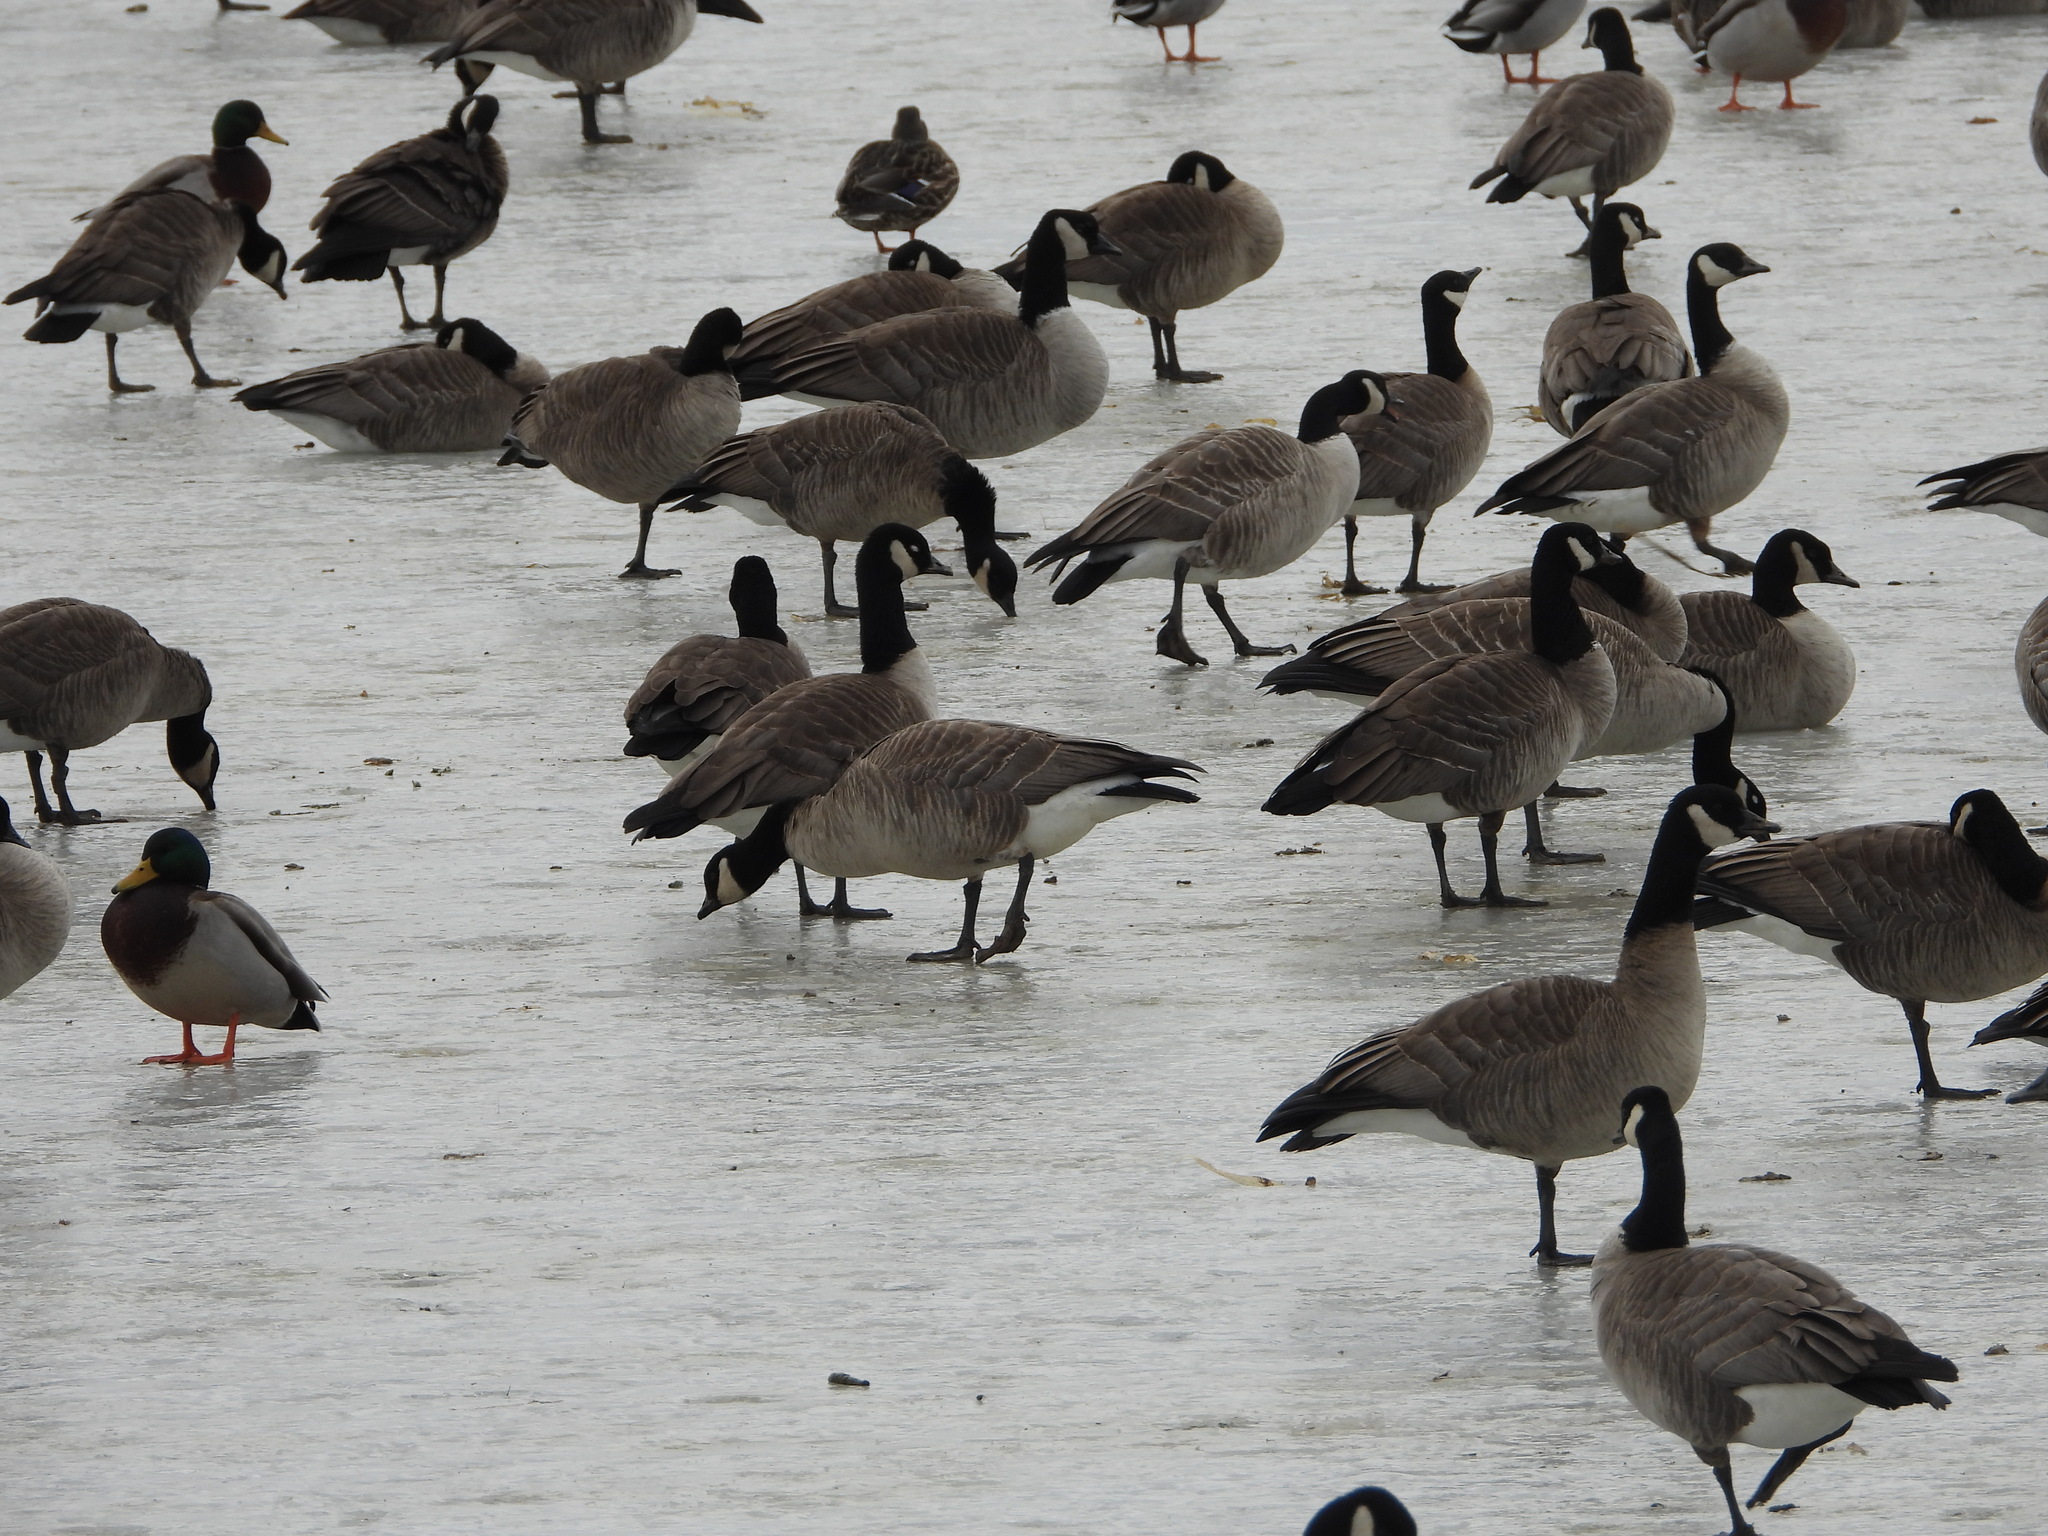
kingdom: Animalia
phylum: Chordata
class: Aves
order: Anseriformes
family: Anatidae
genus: Branta
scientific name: Branta hutchinsii
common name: Cackling goose
